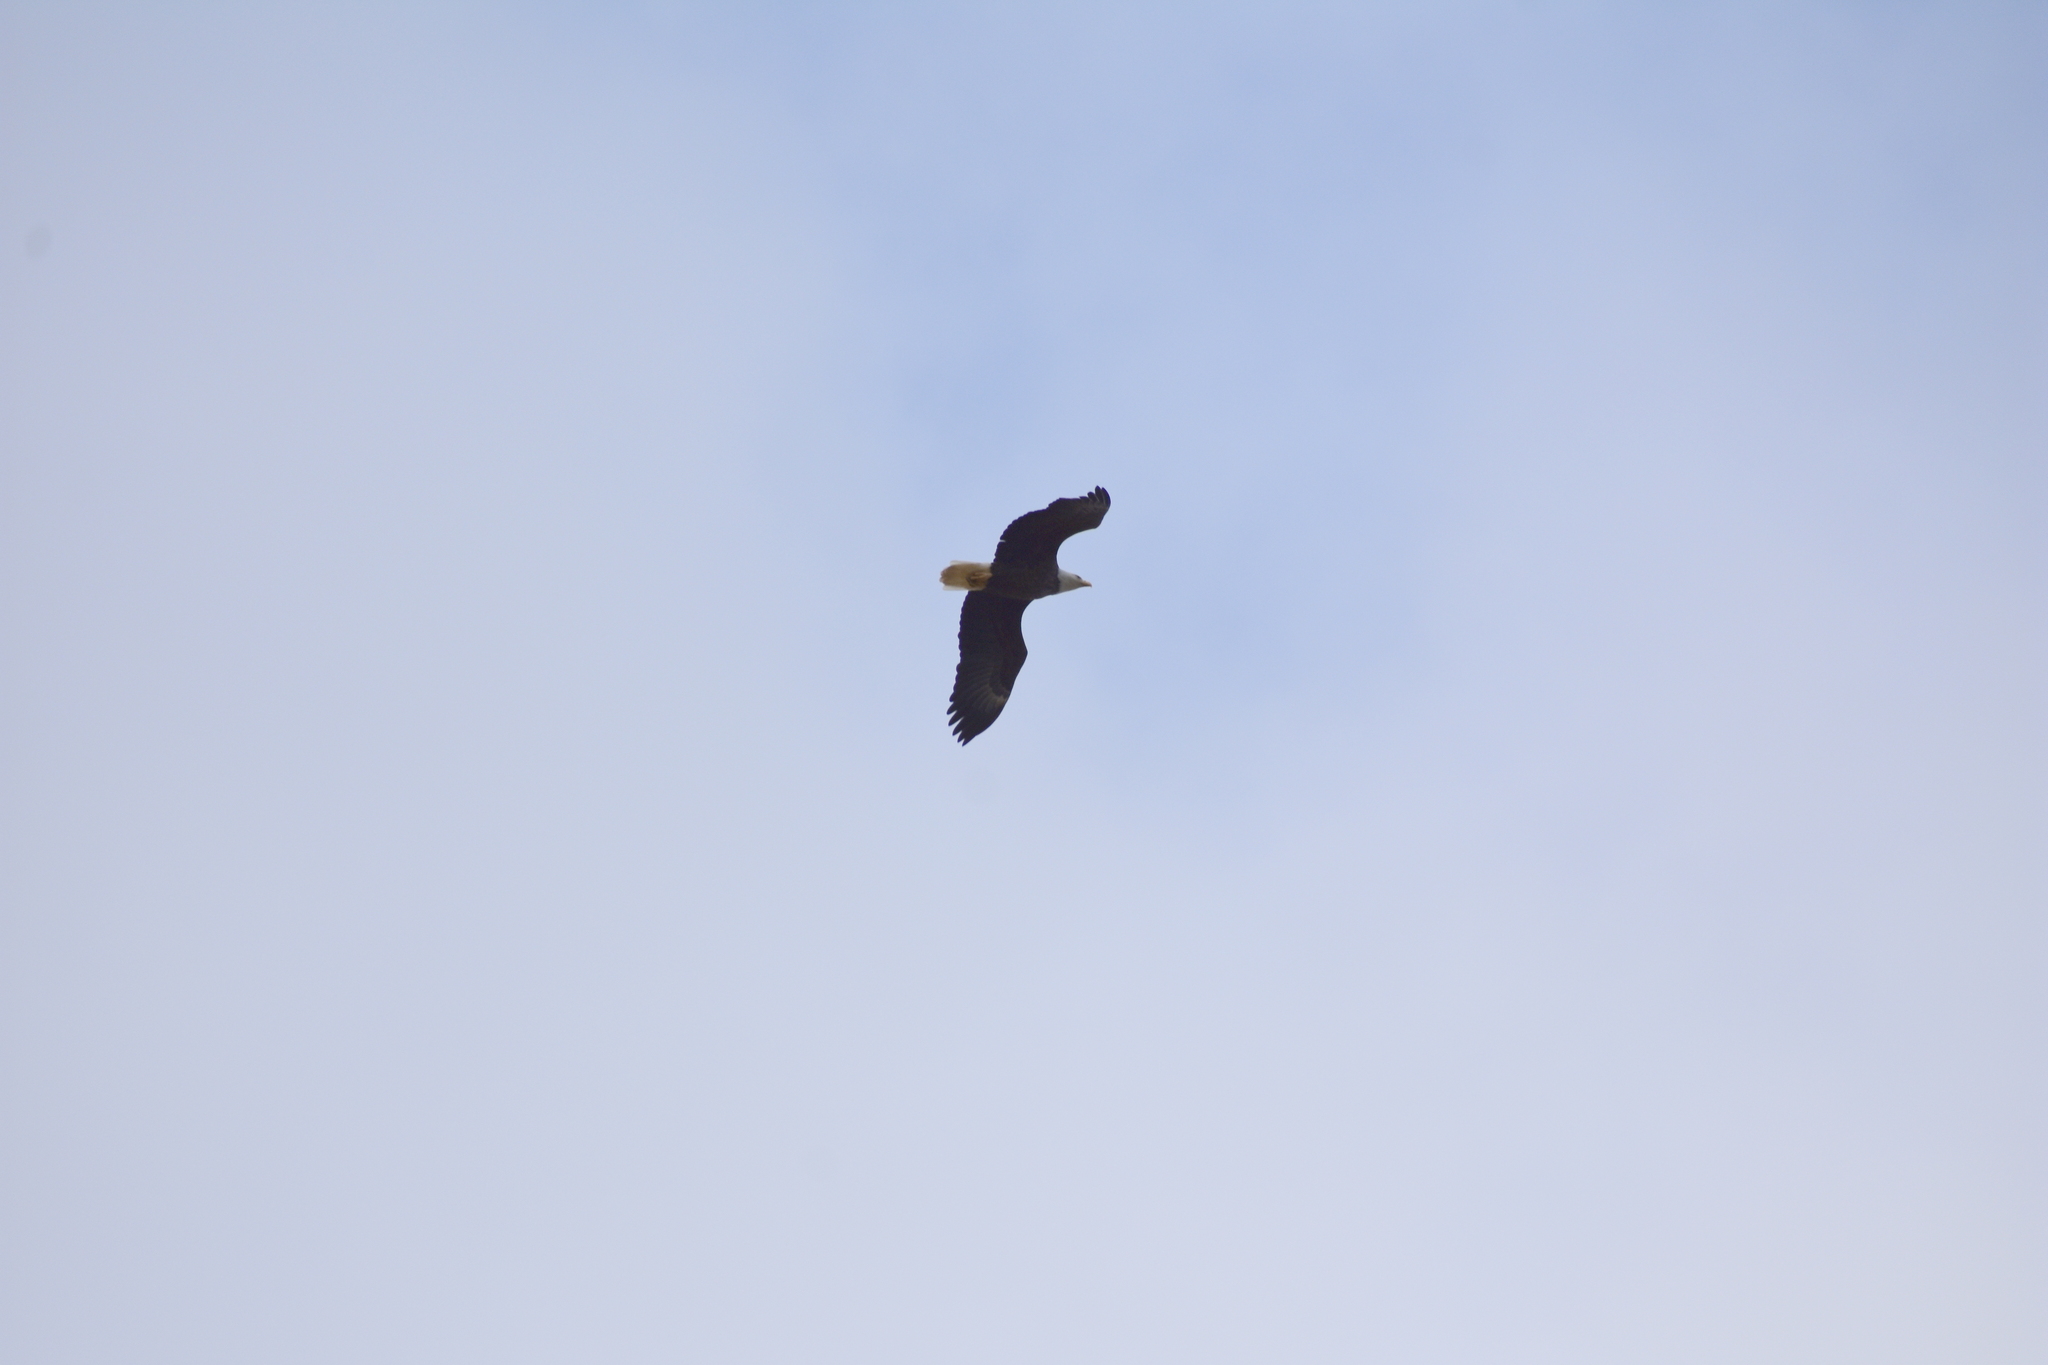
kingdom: Animalia
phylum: Chordata
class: Aves
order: Accipitriformes
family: Accipitridae
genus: Haliaeetus
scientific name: Haliaeetus leucocephalus
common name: Bald eagle
